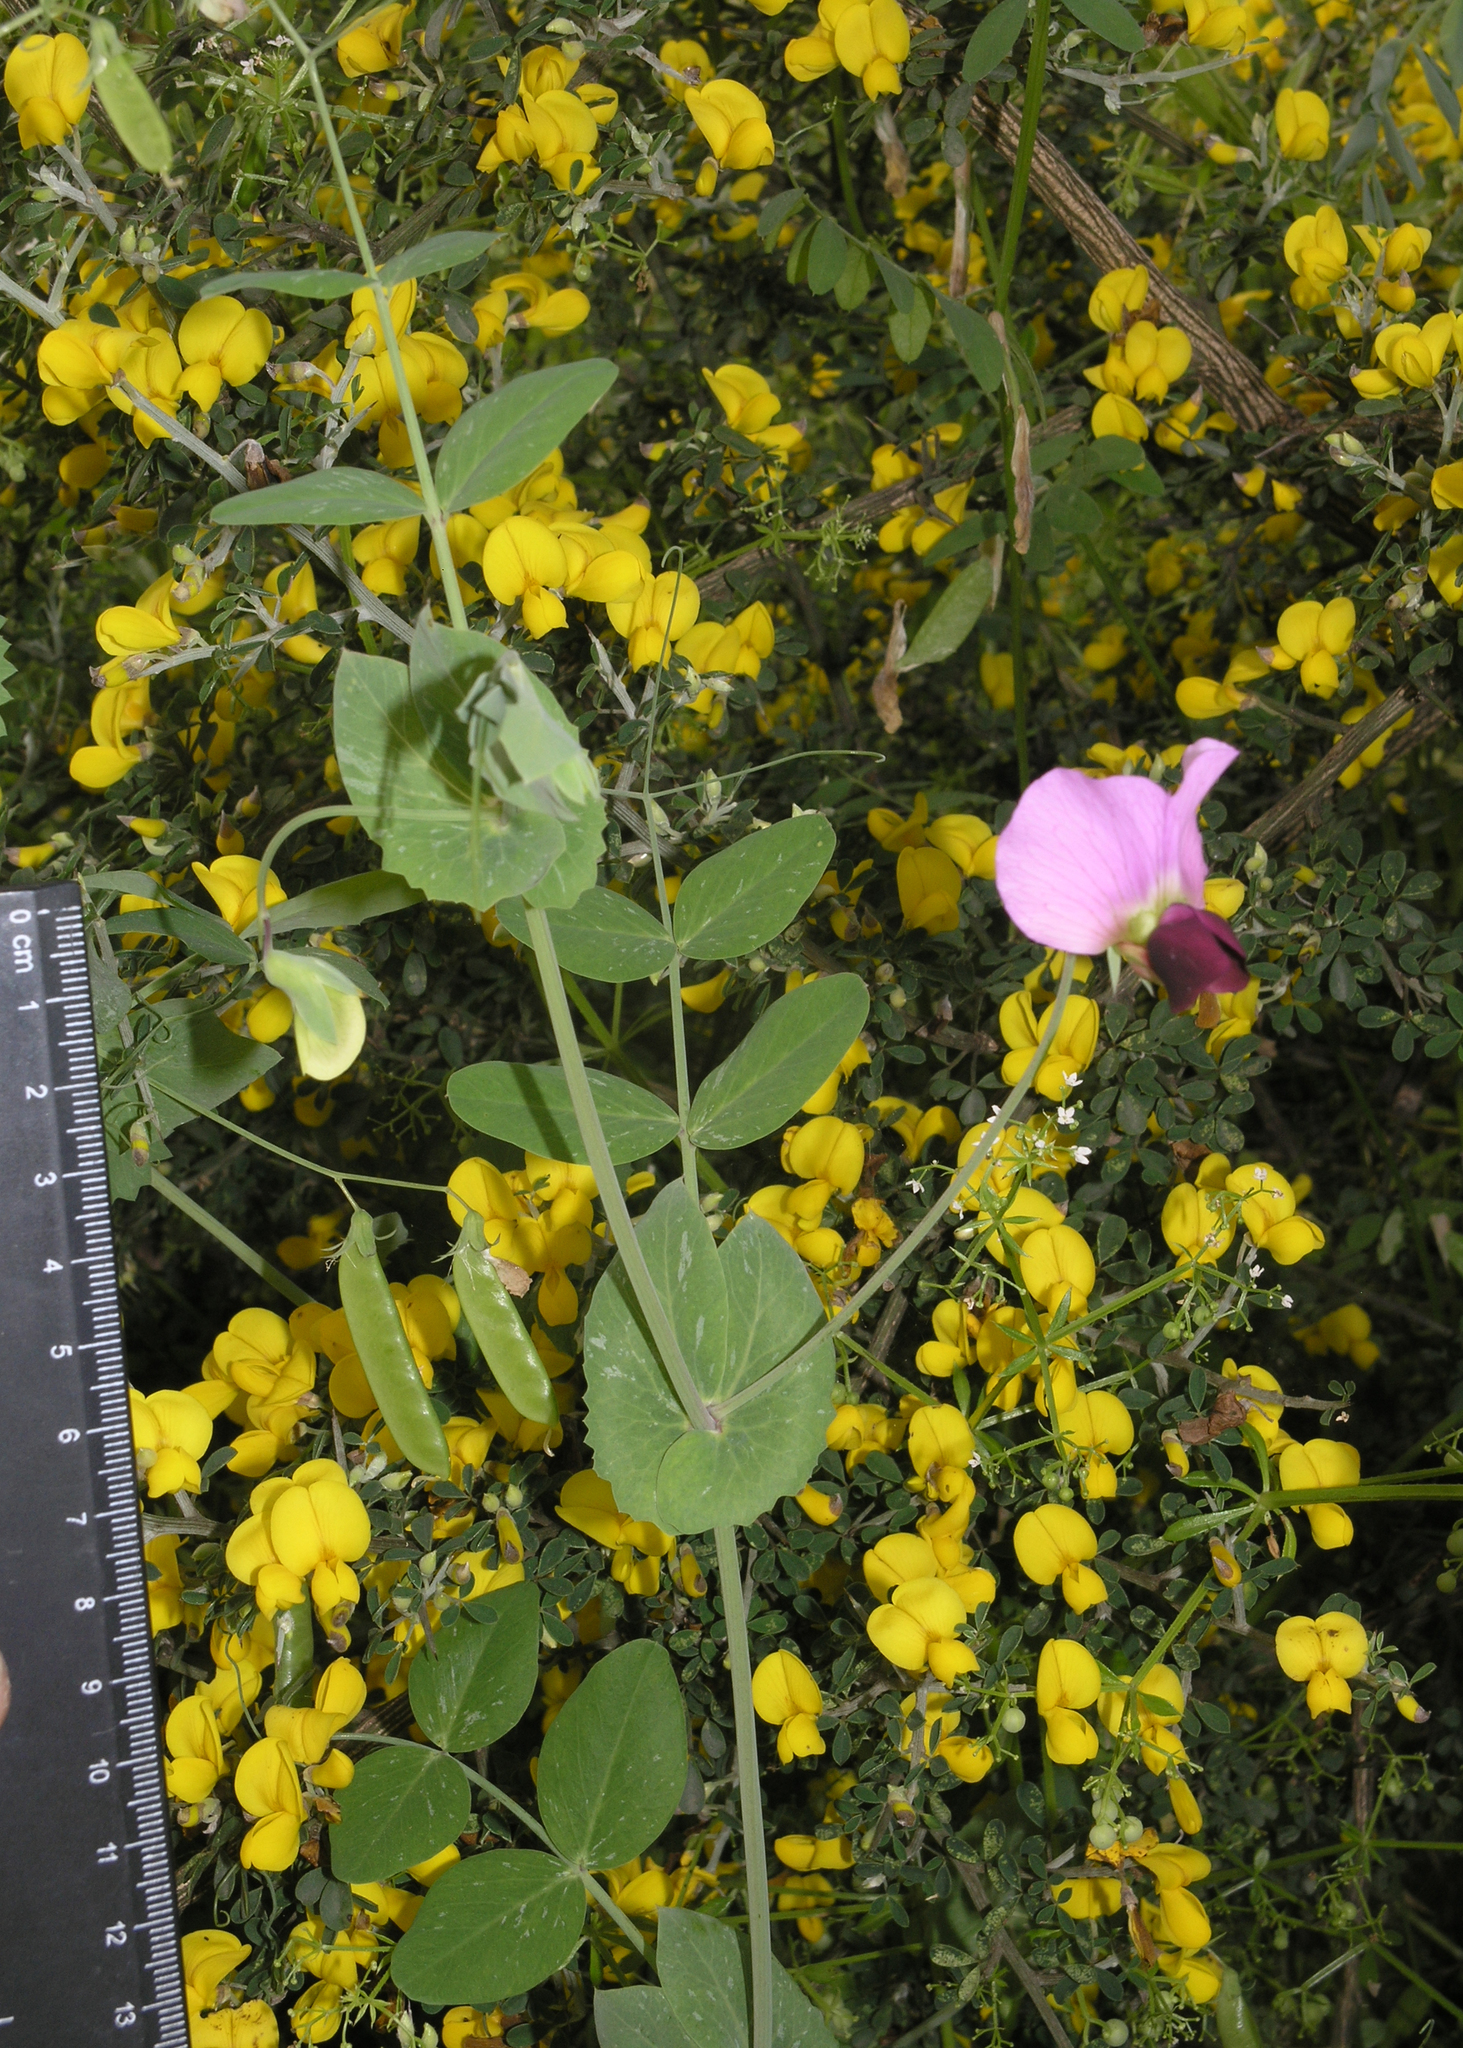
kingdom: Plantae
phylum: Tracheophyta
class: Magnoliopsida
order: Fabales
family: Fabaceae
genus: Lathyrus
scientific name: Lathyrus oleraceus
